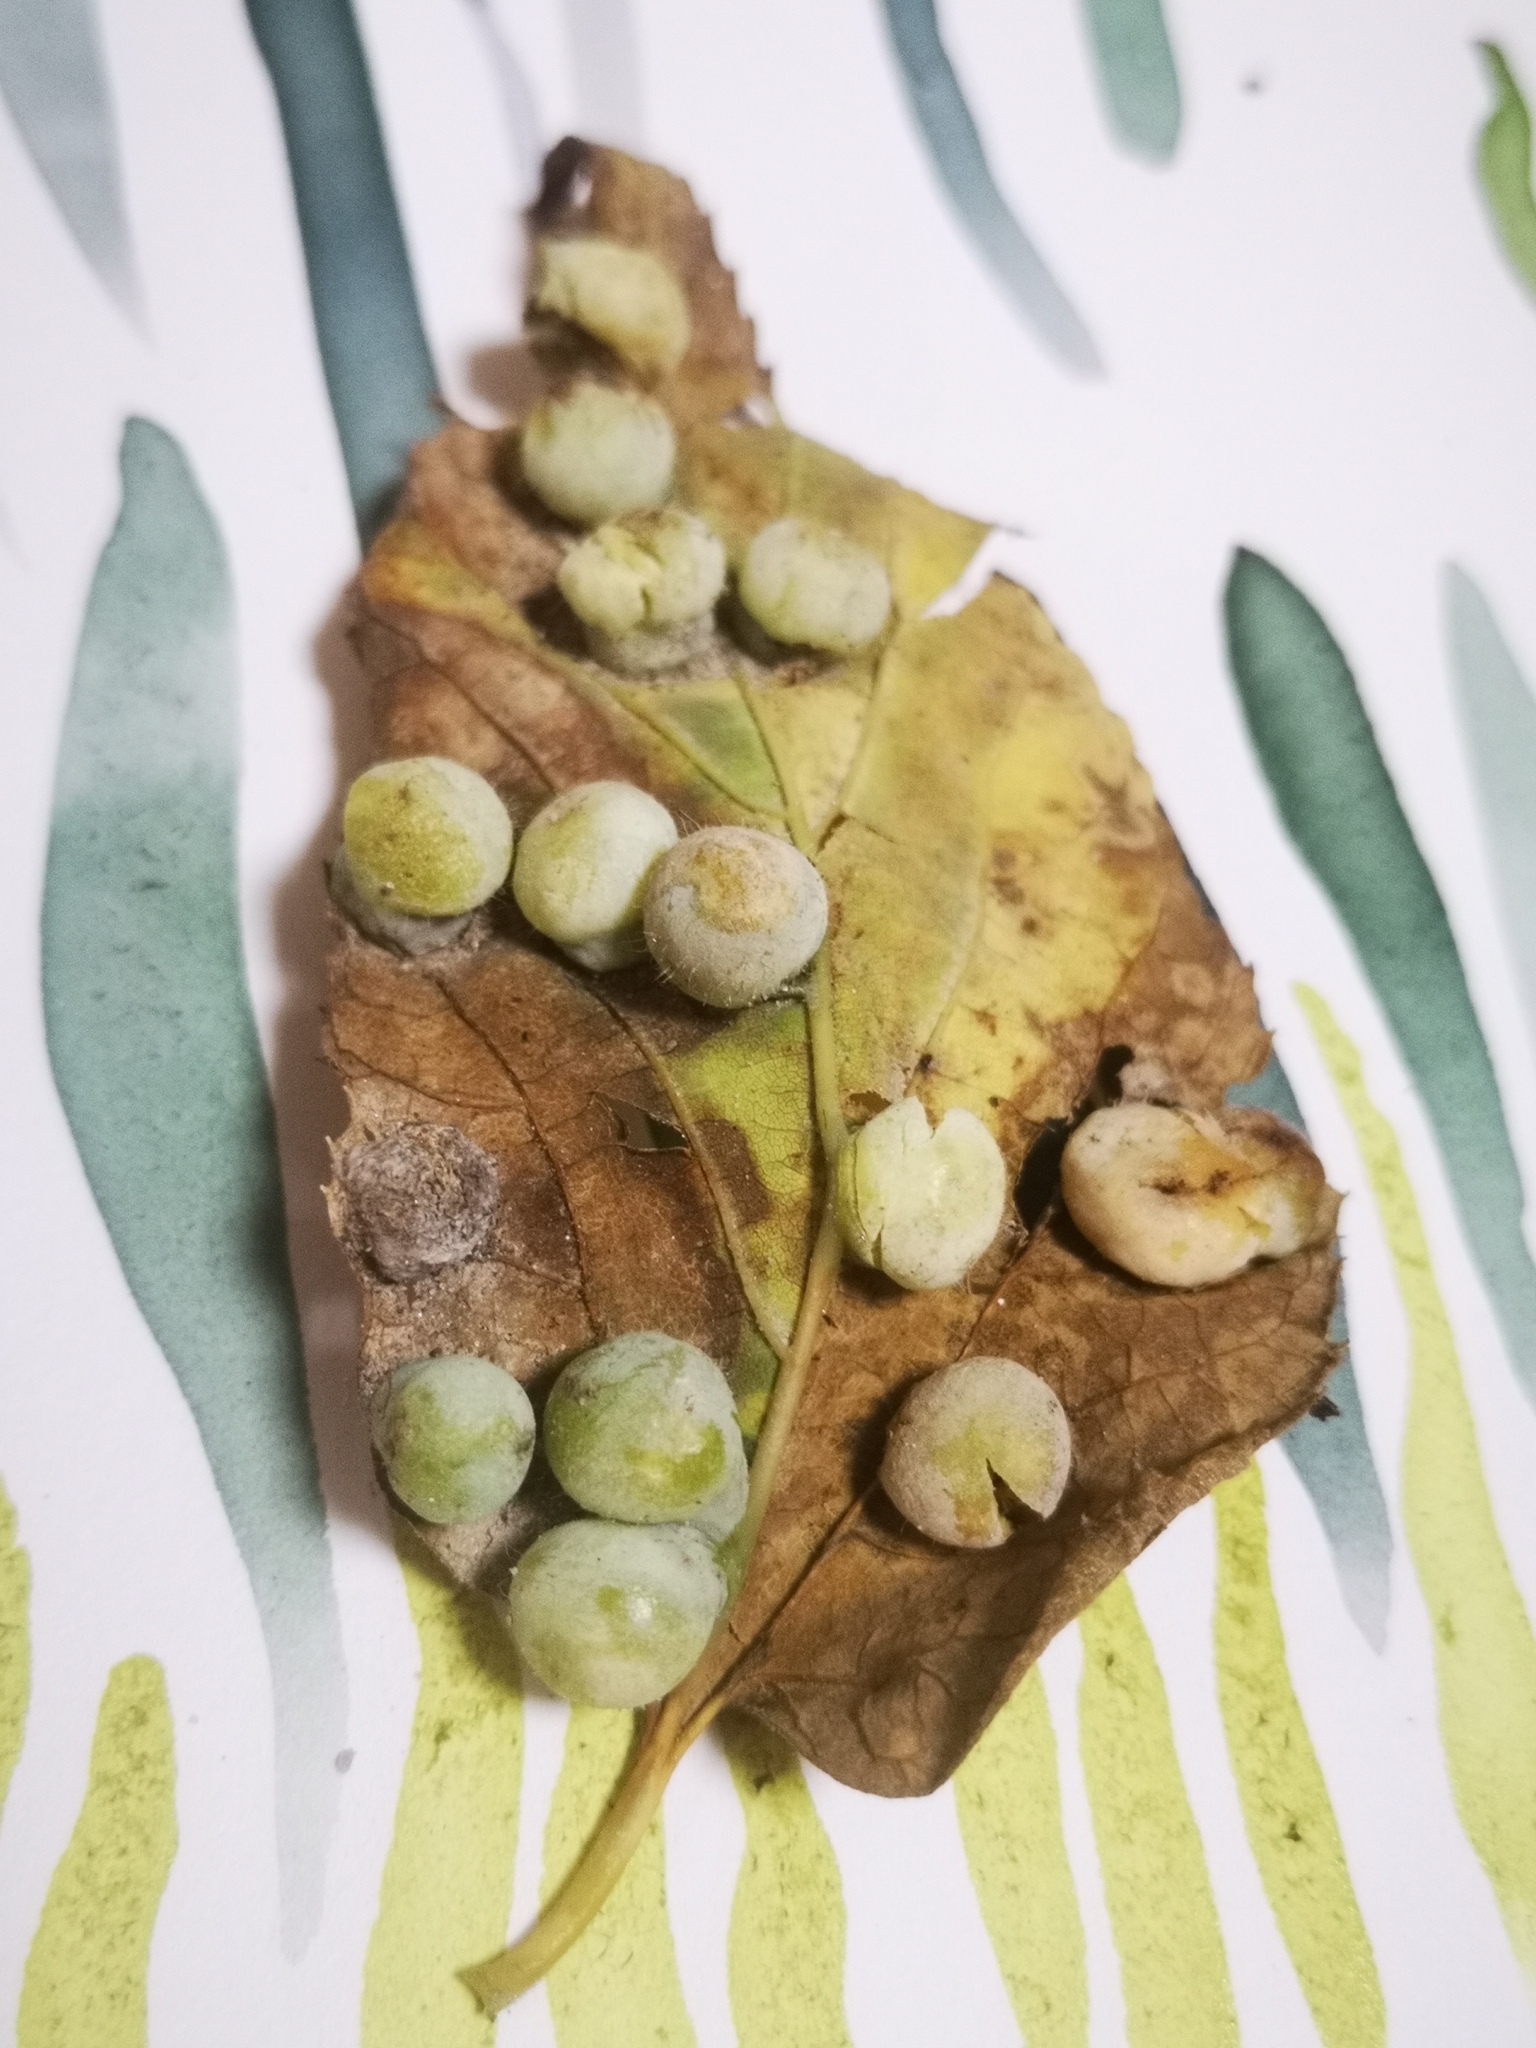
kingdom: Animalia
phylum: Arthropoda
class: Insecta
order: Hemiptera
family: Aphalaridae
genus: Pachypsylla
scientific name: Pachypsylla celtidismamma
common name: Hackberry nipplegall psyllid
